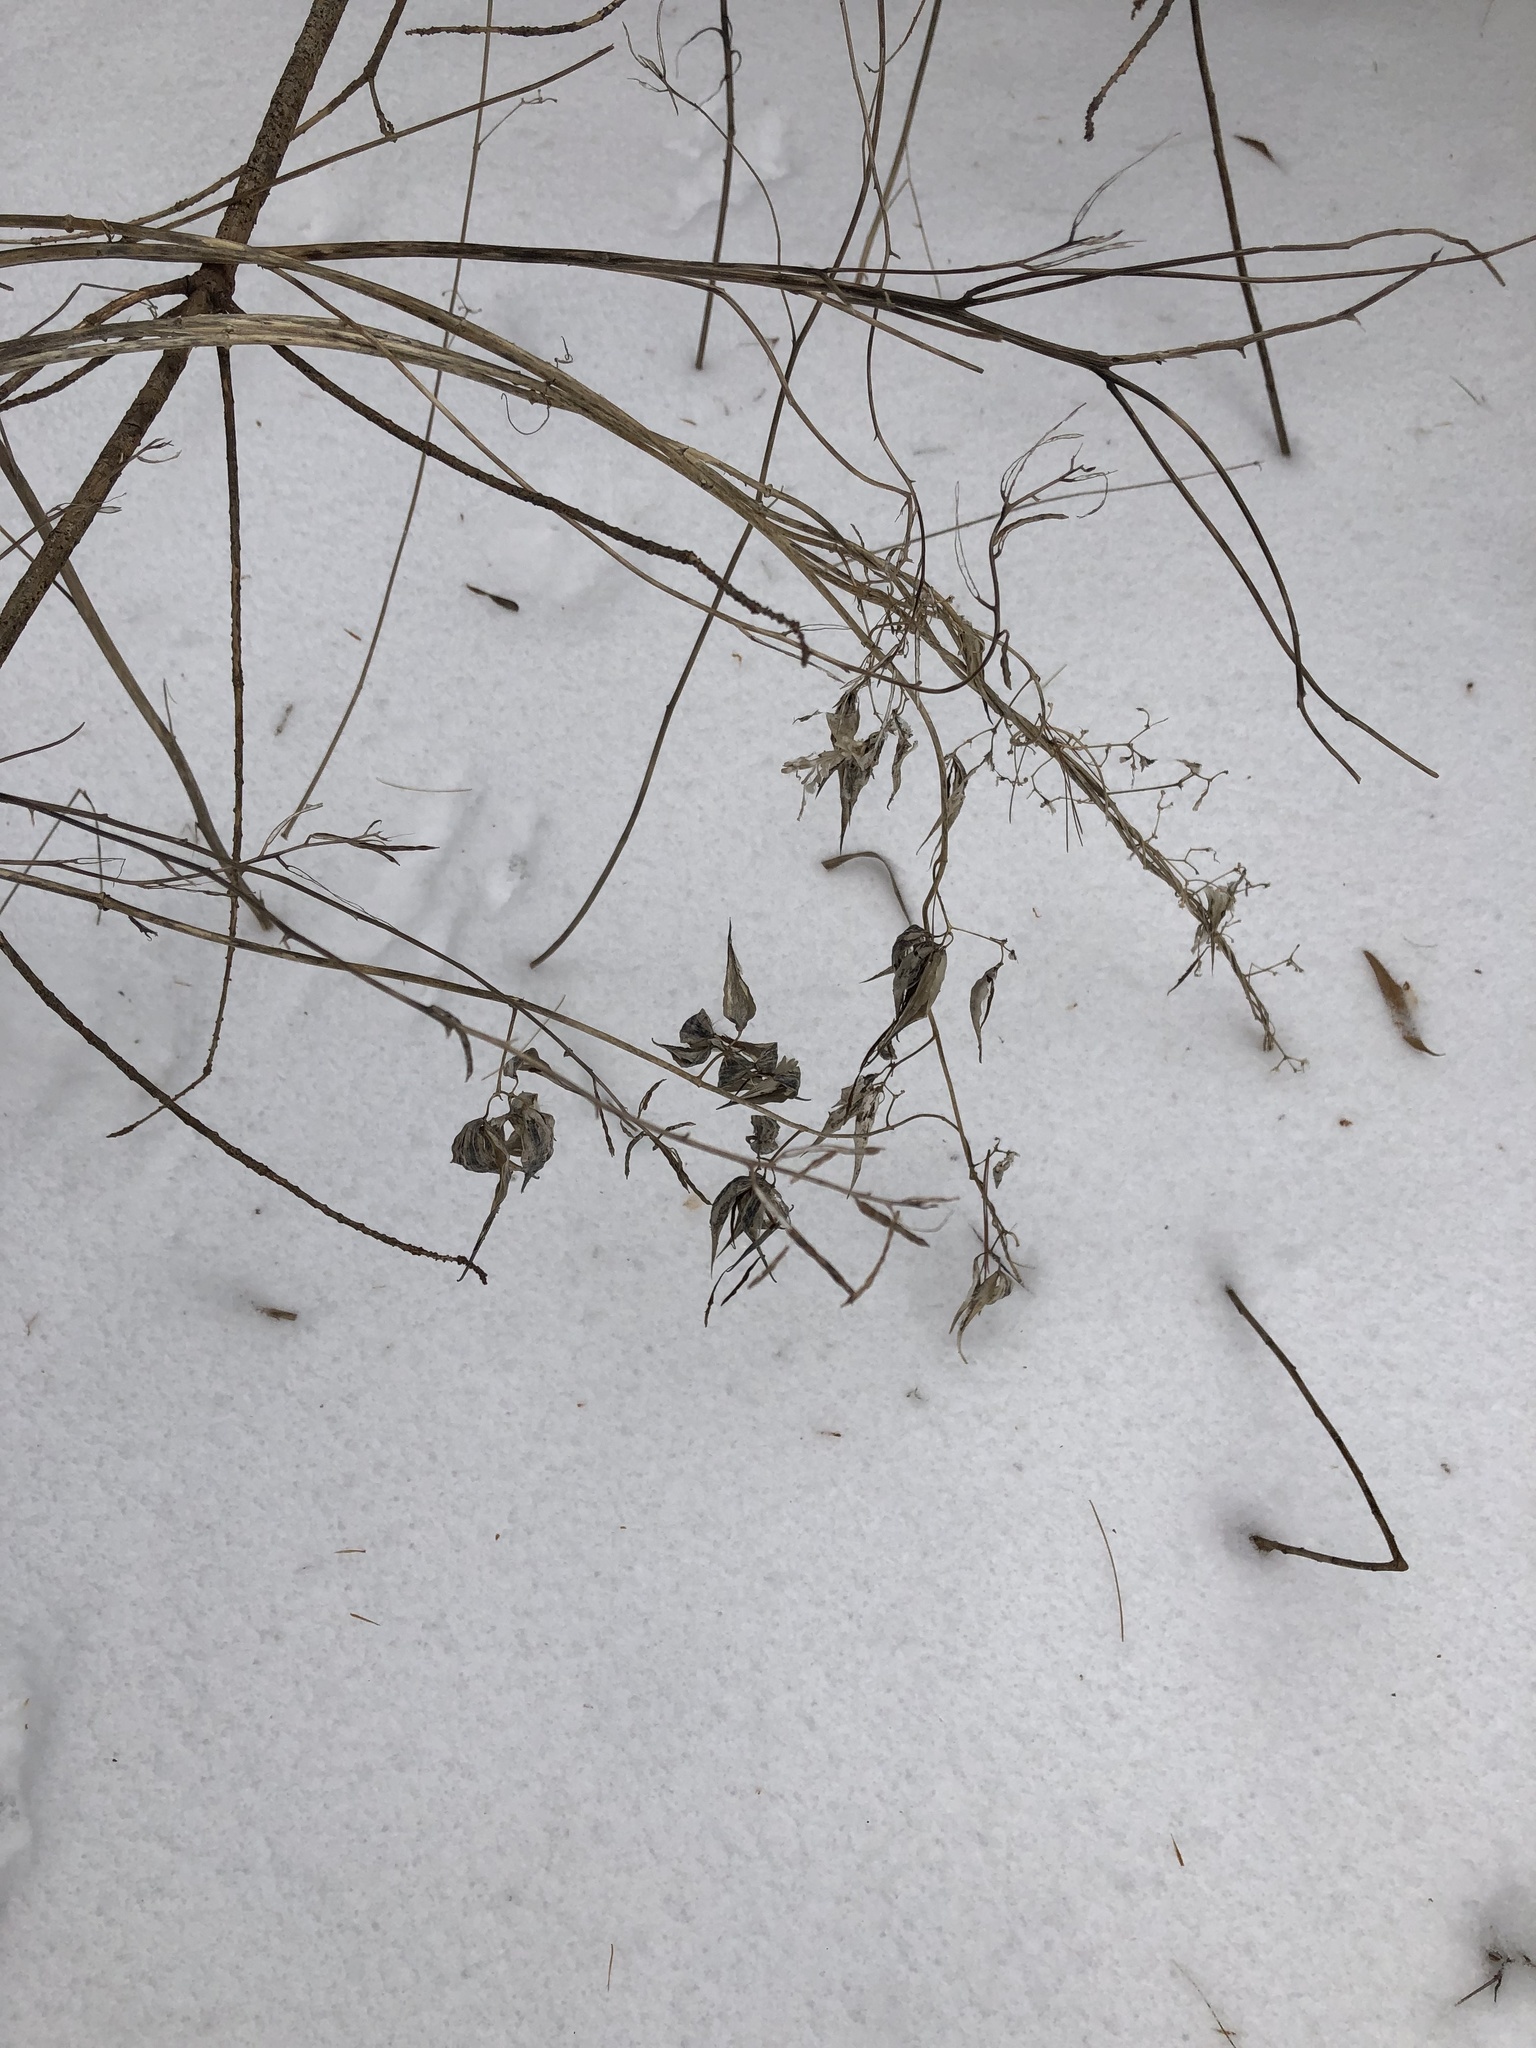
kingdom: Plantae
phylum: Tracheophyta
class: Magnoliopsida
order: Gentianales
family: Apocynaceae
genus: Vincetoxicum
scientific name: Vincetoxicum rossicum
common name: Dog-strangling vine
